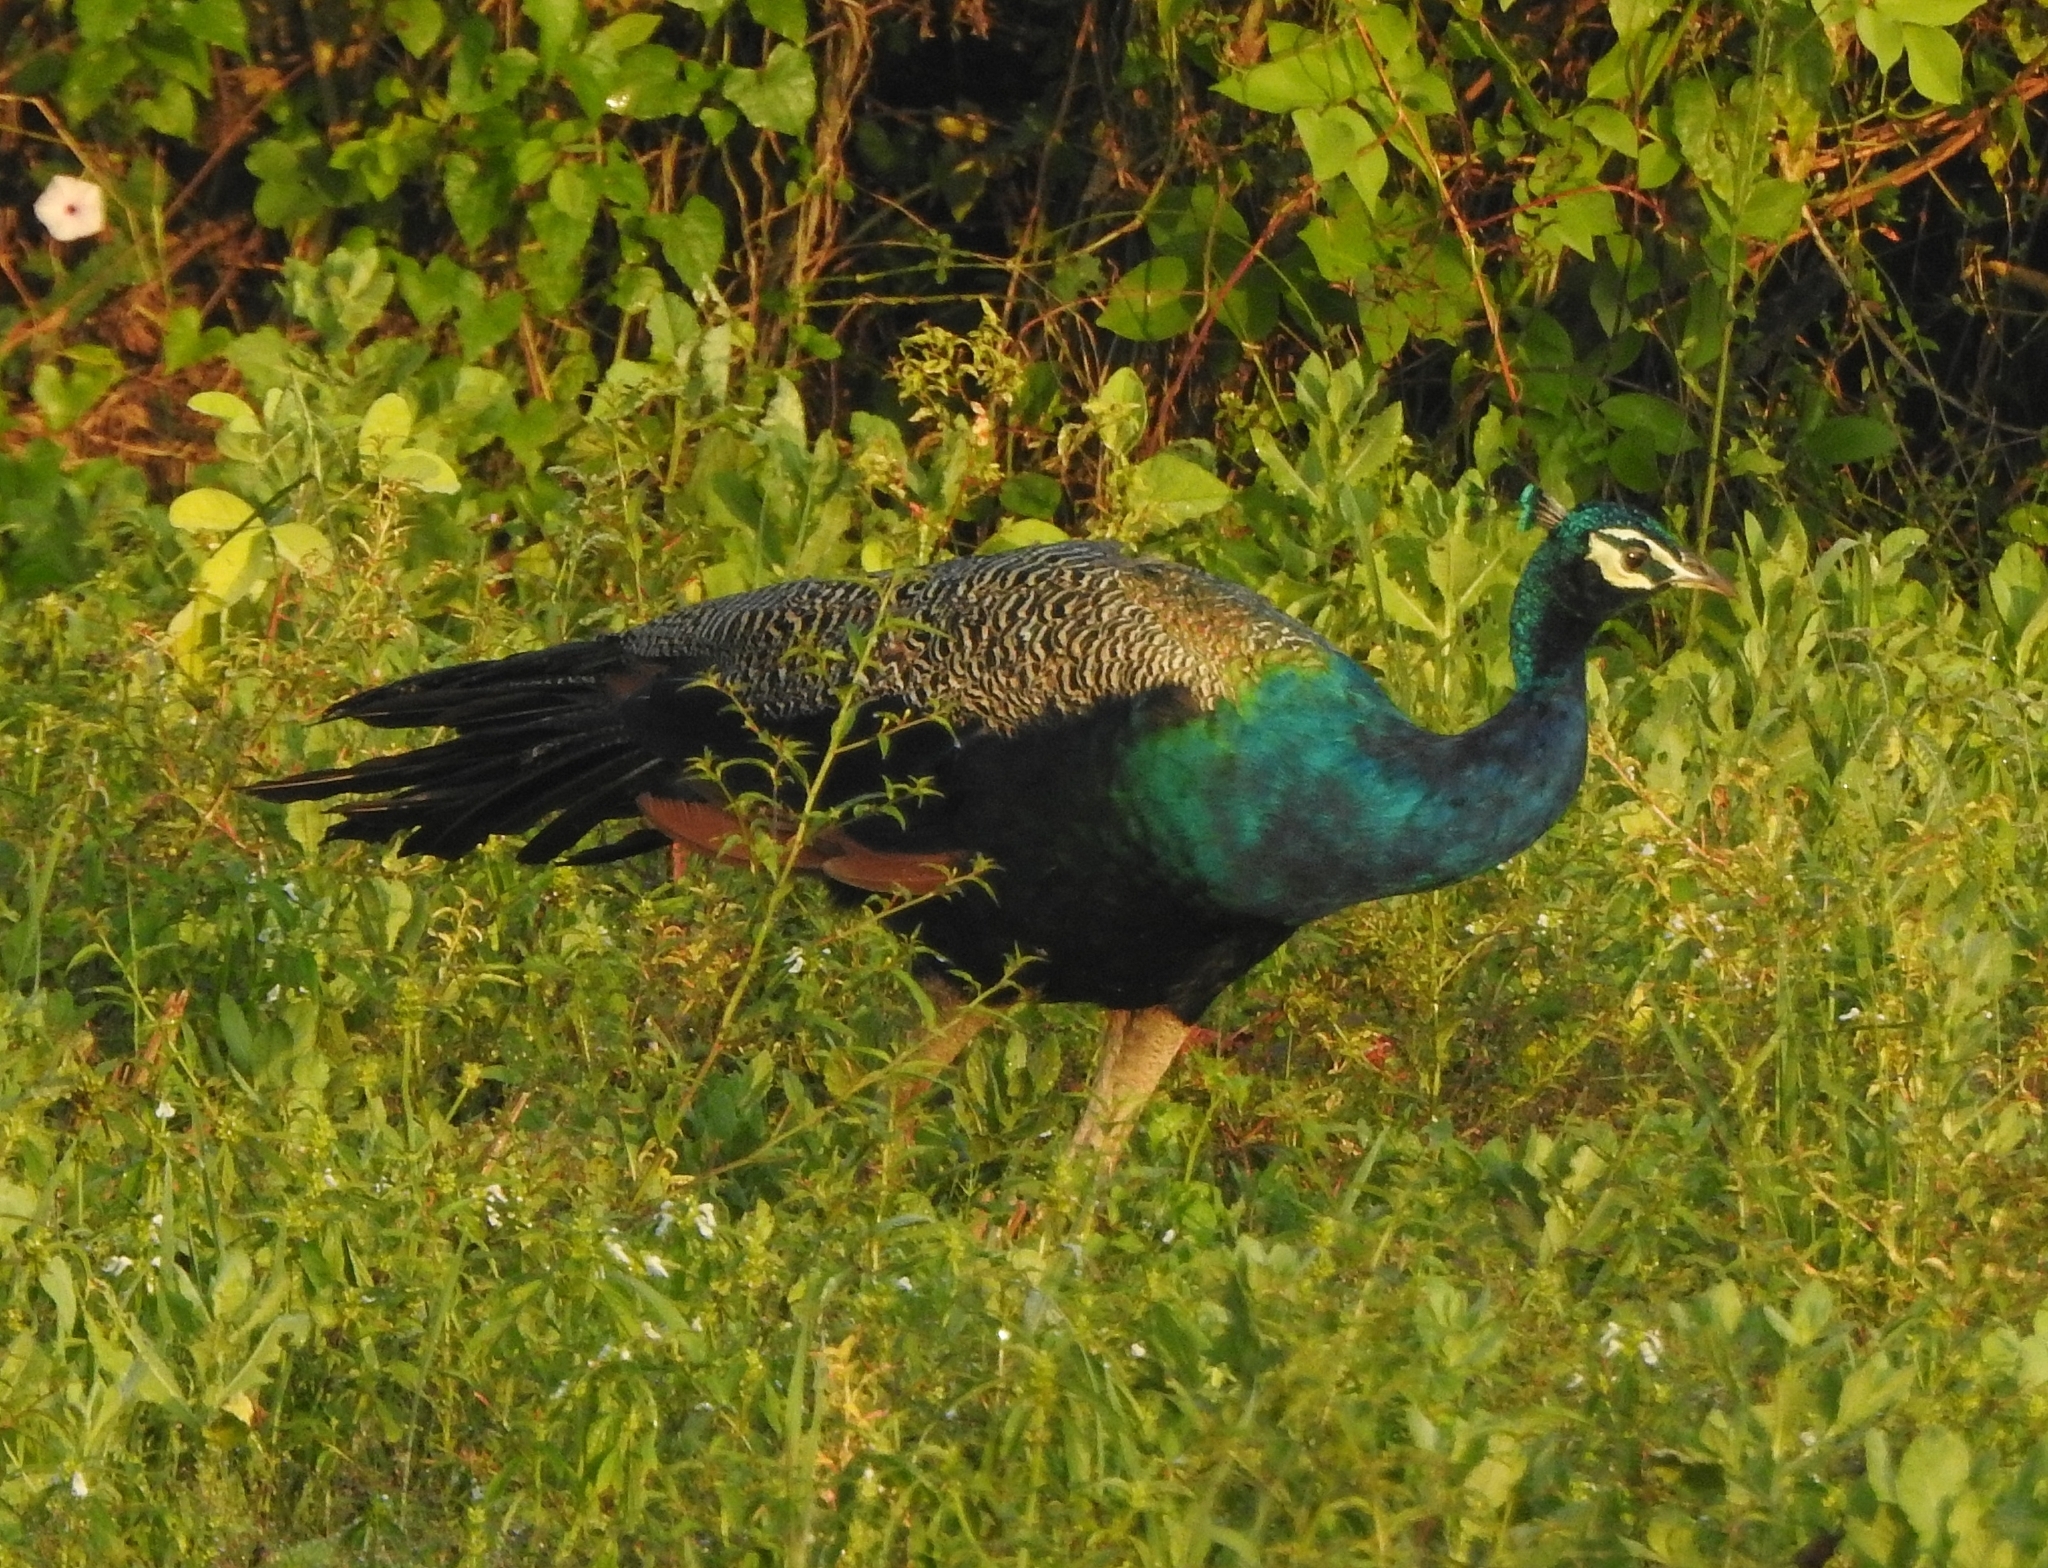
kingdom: Animalia
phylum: Chordata
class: Aves
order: Galliformes
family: Phasianidae
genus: Pavo
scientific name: Pavo cristatus
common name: Indian peafowl
